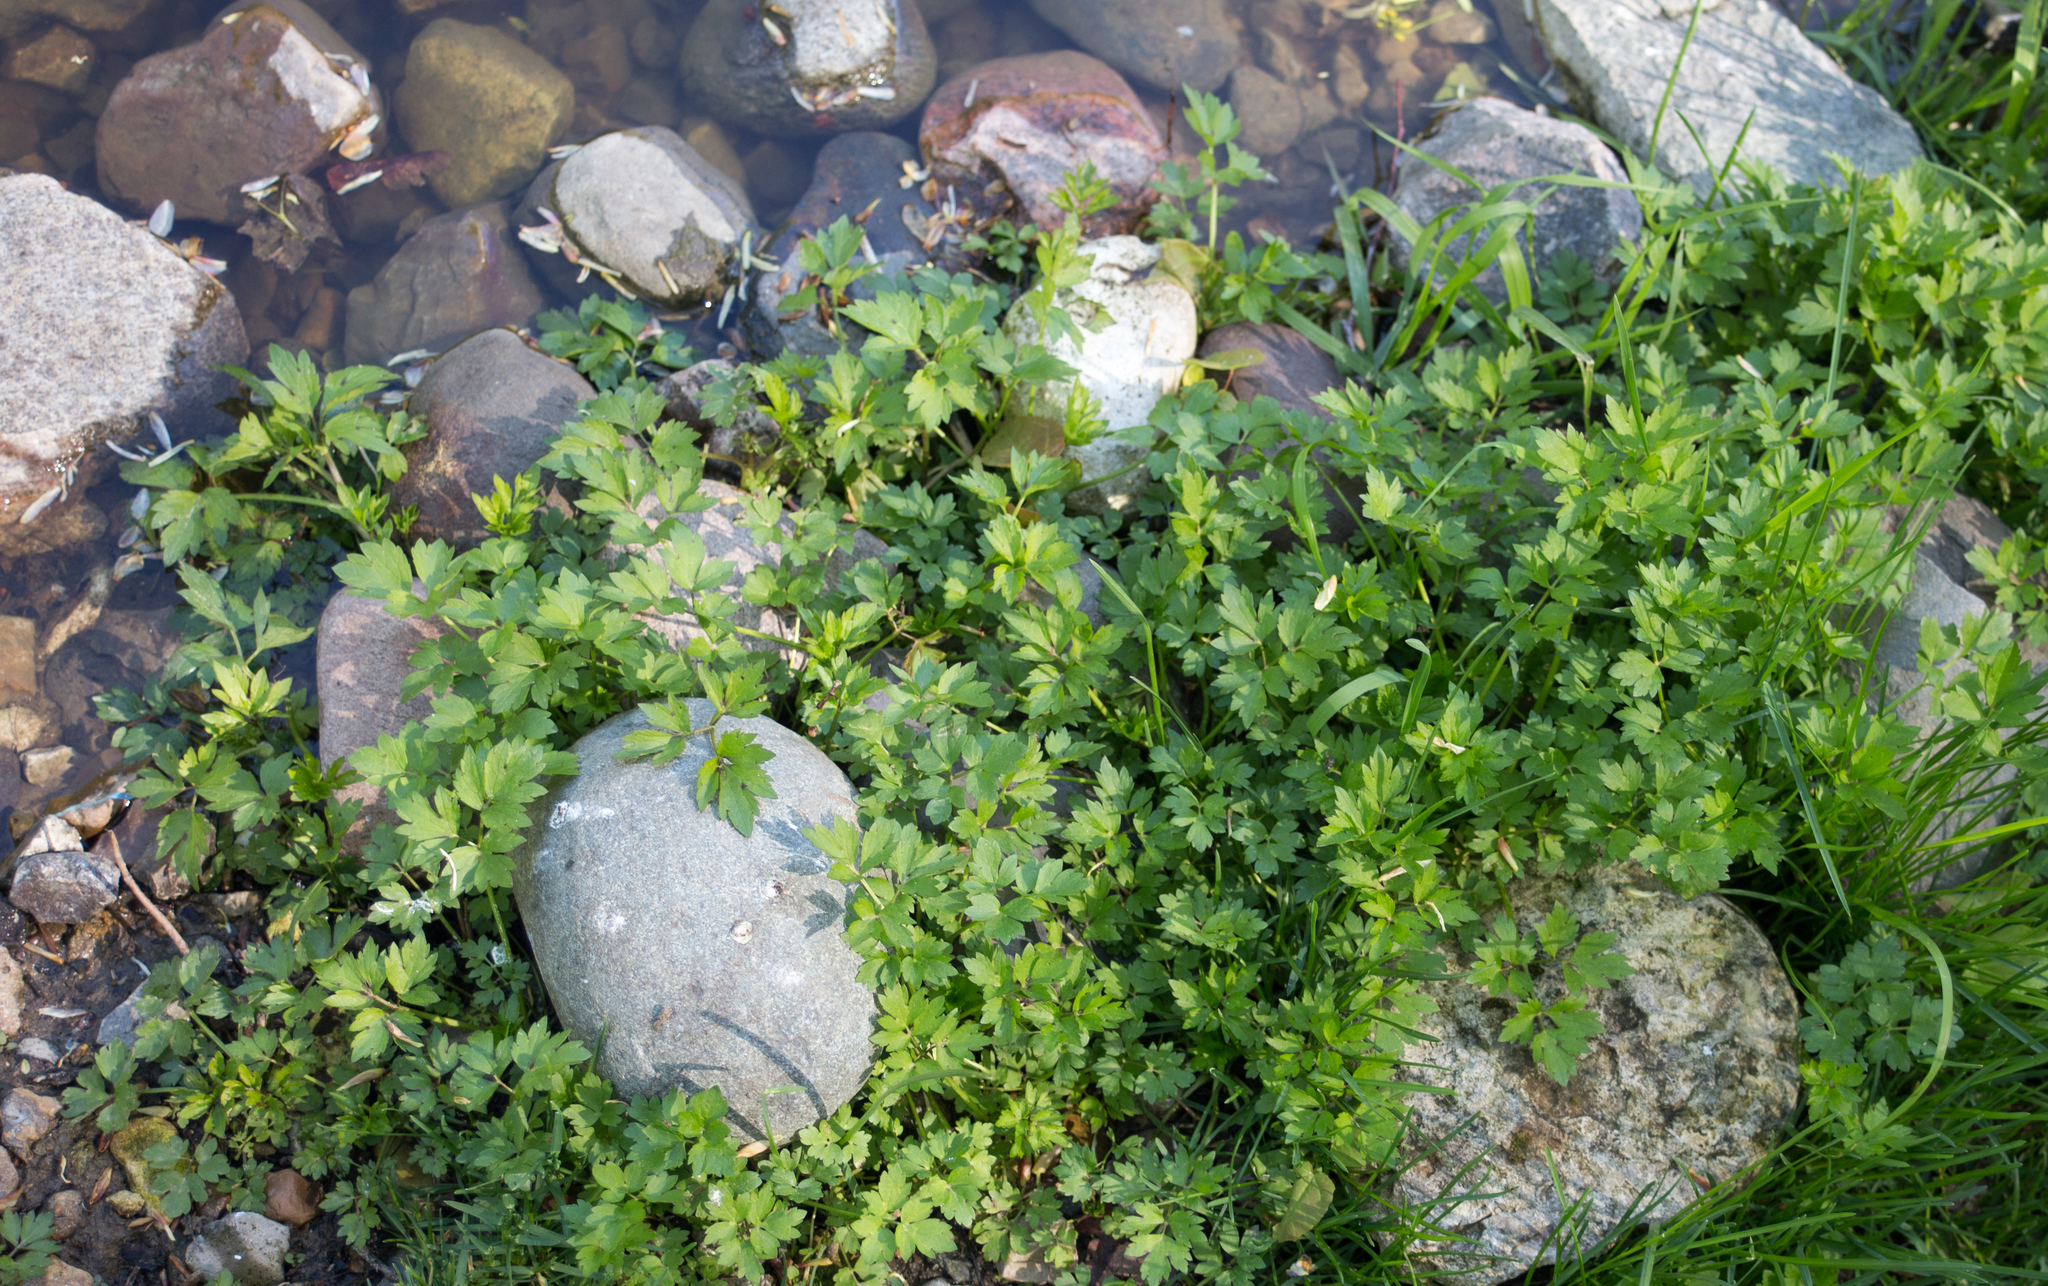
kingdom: Plantae
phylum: Tracheophyta
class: Magnoliopsida
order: Ranunculales
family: Ranunculaceae
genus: Ranunculus
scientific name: Ranunculus repens
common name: Creeping buttercup
